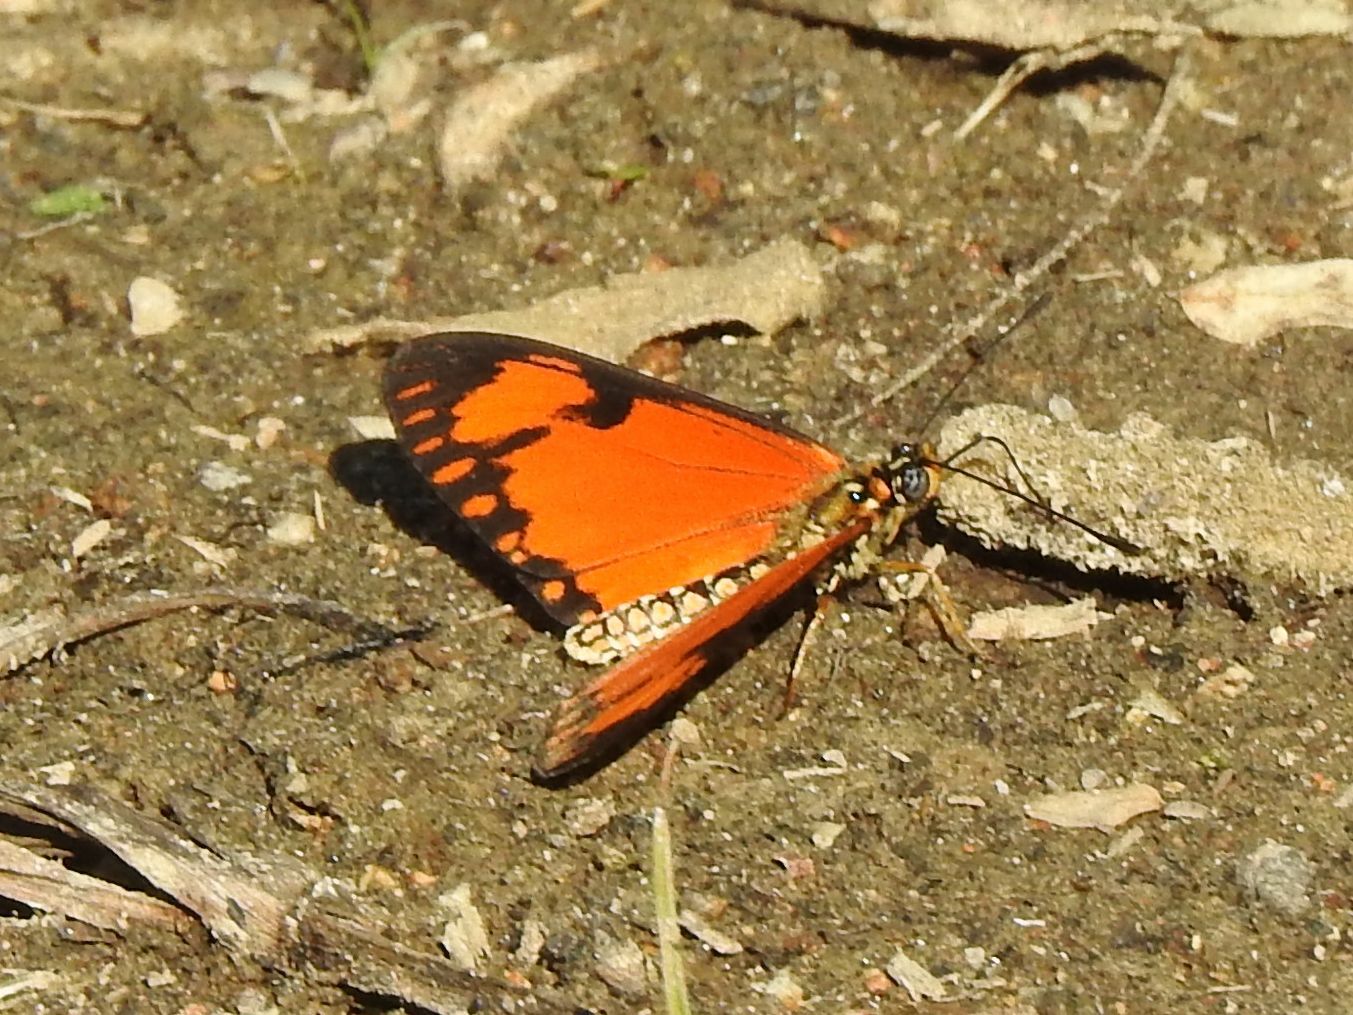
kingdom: Animalia
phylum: Arthropoda
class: Insecta
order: Lepidoptera
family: Nymphalidae
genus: Acraea
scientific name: Acraea Telchinia serena
